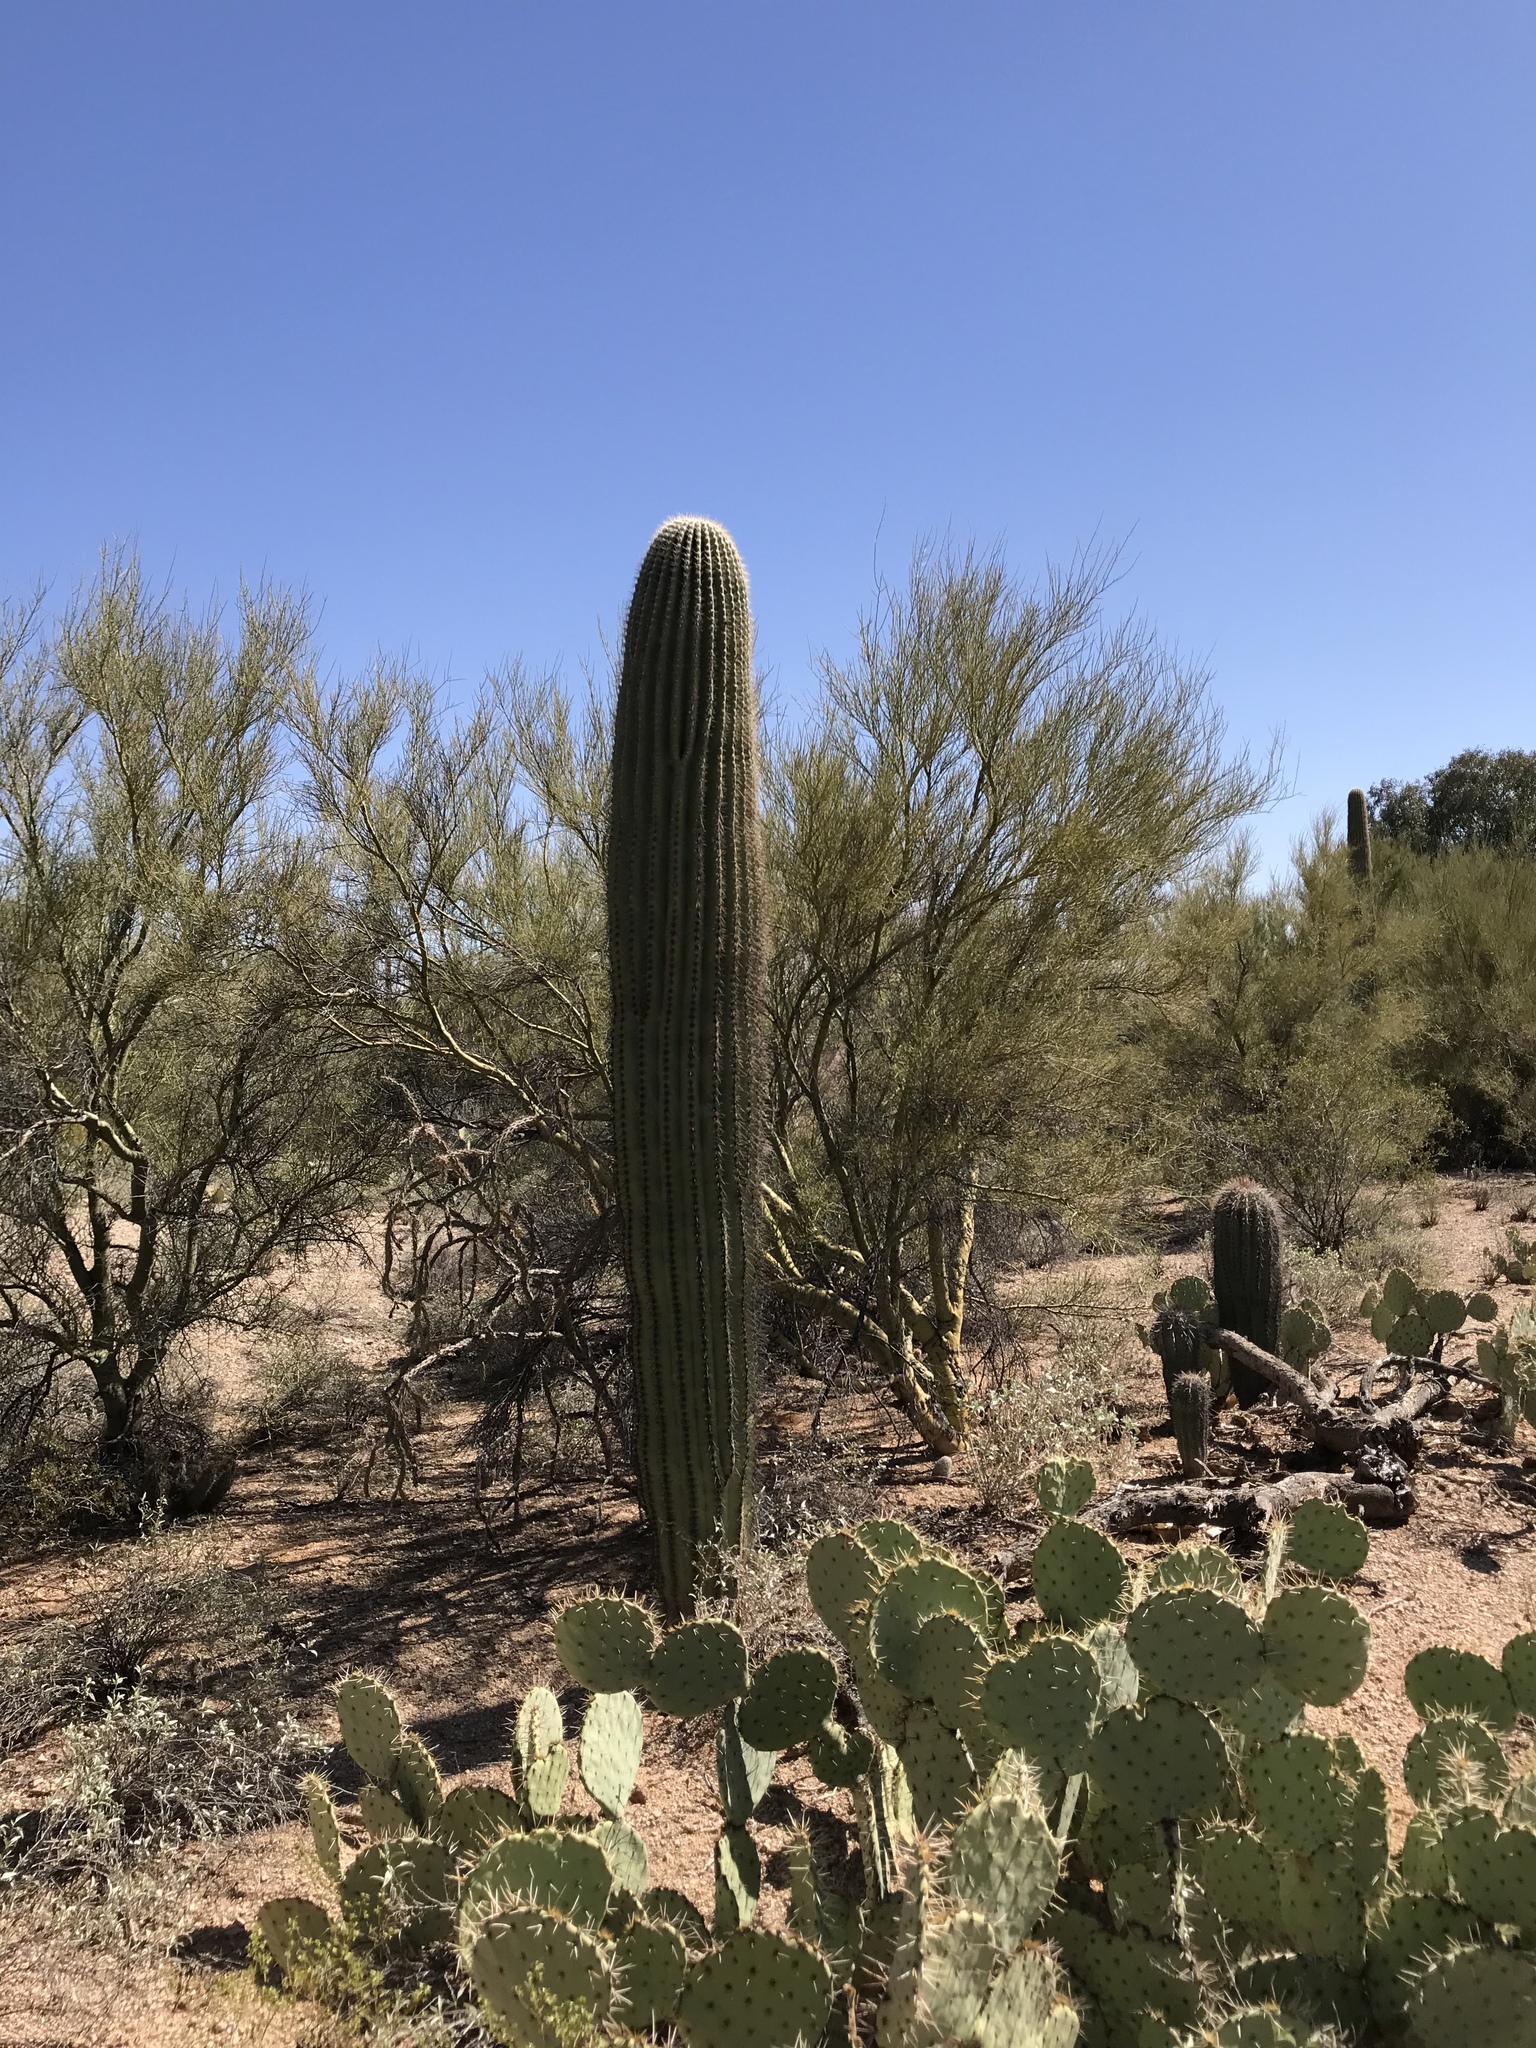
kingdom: Plantae
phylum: Tracheophyta
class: Magnoliopsida
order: Caryophyllales
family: Cactaceae
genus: Carnegiea
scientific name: Carnegiea gigantea
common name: Saguaro
